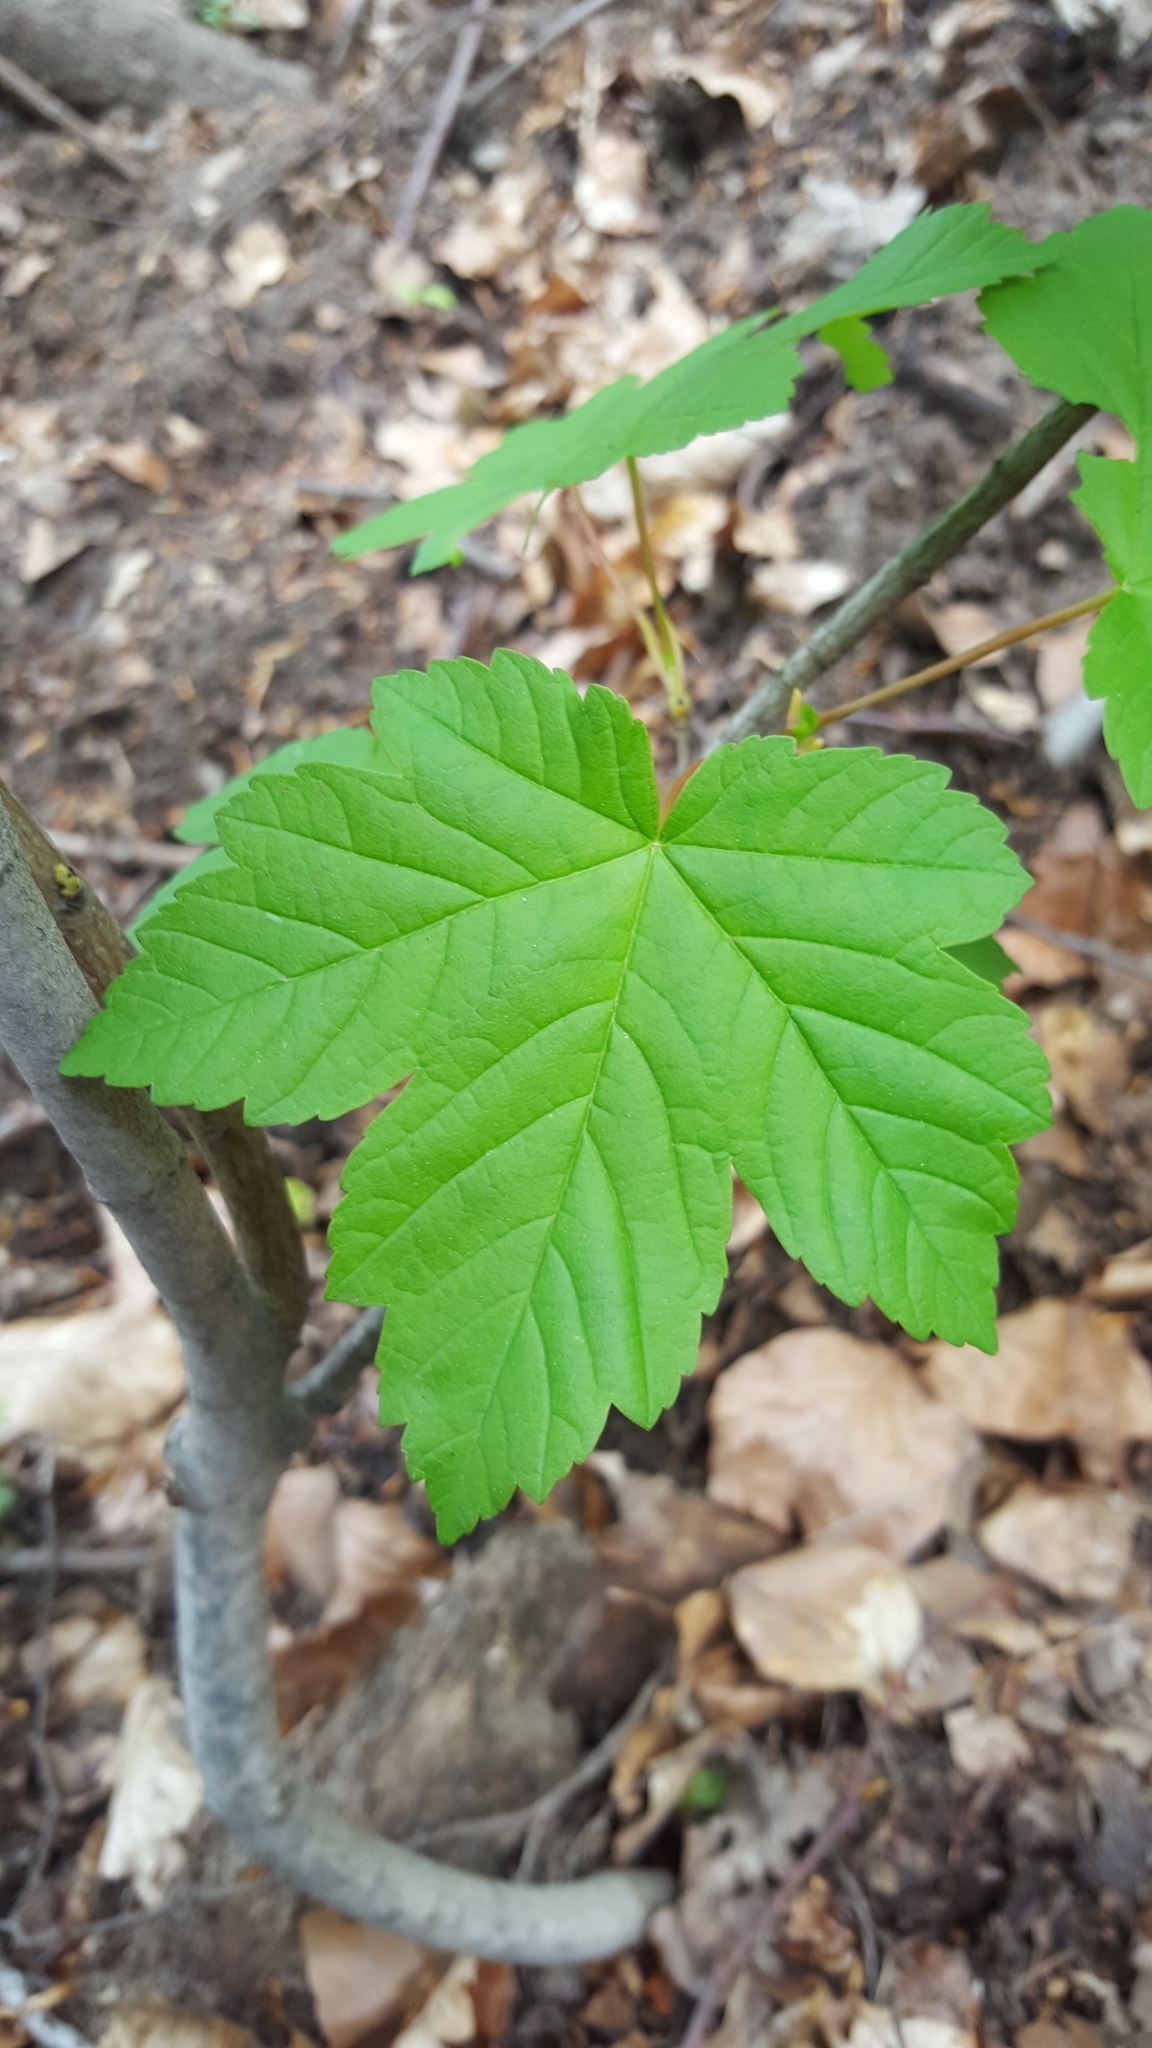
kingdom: Plantae
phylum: Tracheophyta
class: Magnoliopsida
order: Sapindales
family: Sapindaceae
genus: Acer
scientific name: Acer pseudoplatanus
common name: Sycamore
